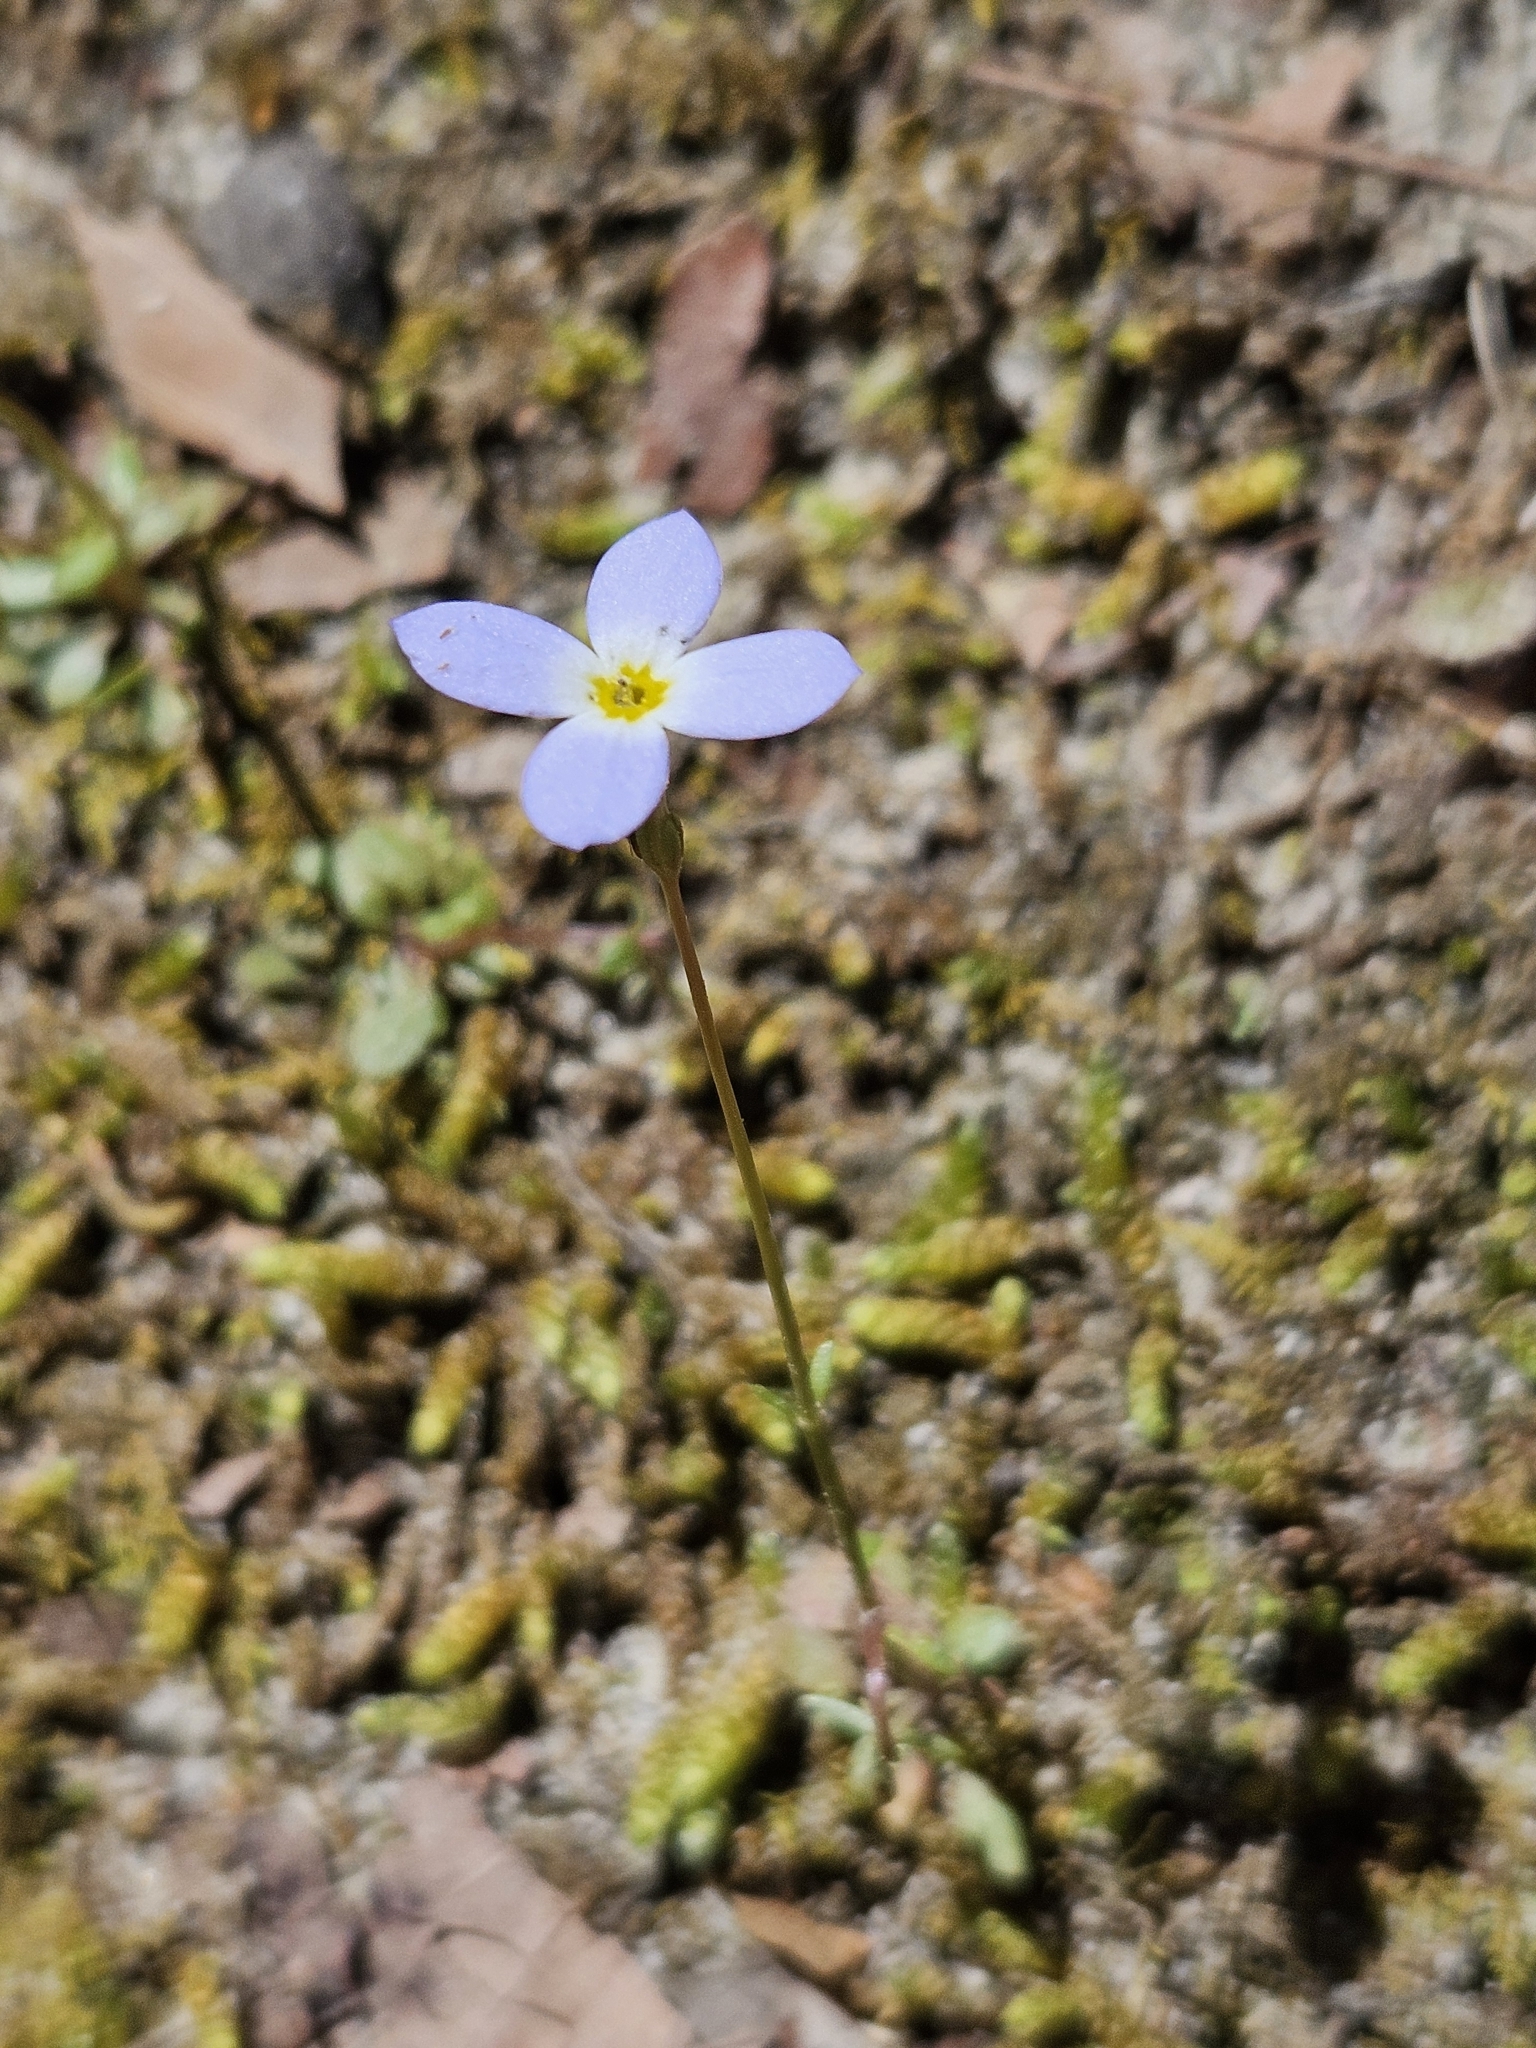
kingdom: Plantae
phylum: Tracheophyta
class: Magnoliopsida
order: Gentianales
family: Rubiaceae
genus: Houstonia
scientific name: Houstonia caerulea
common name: Bluets
